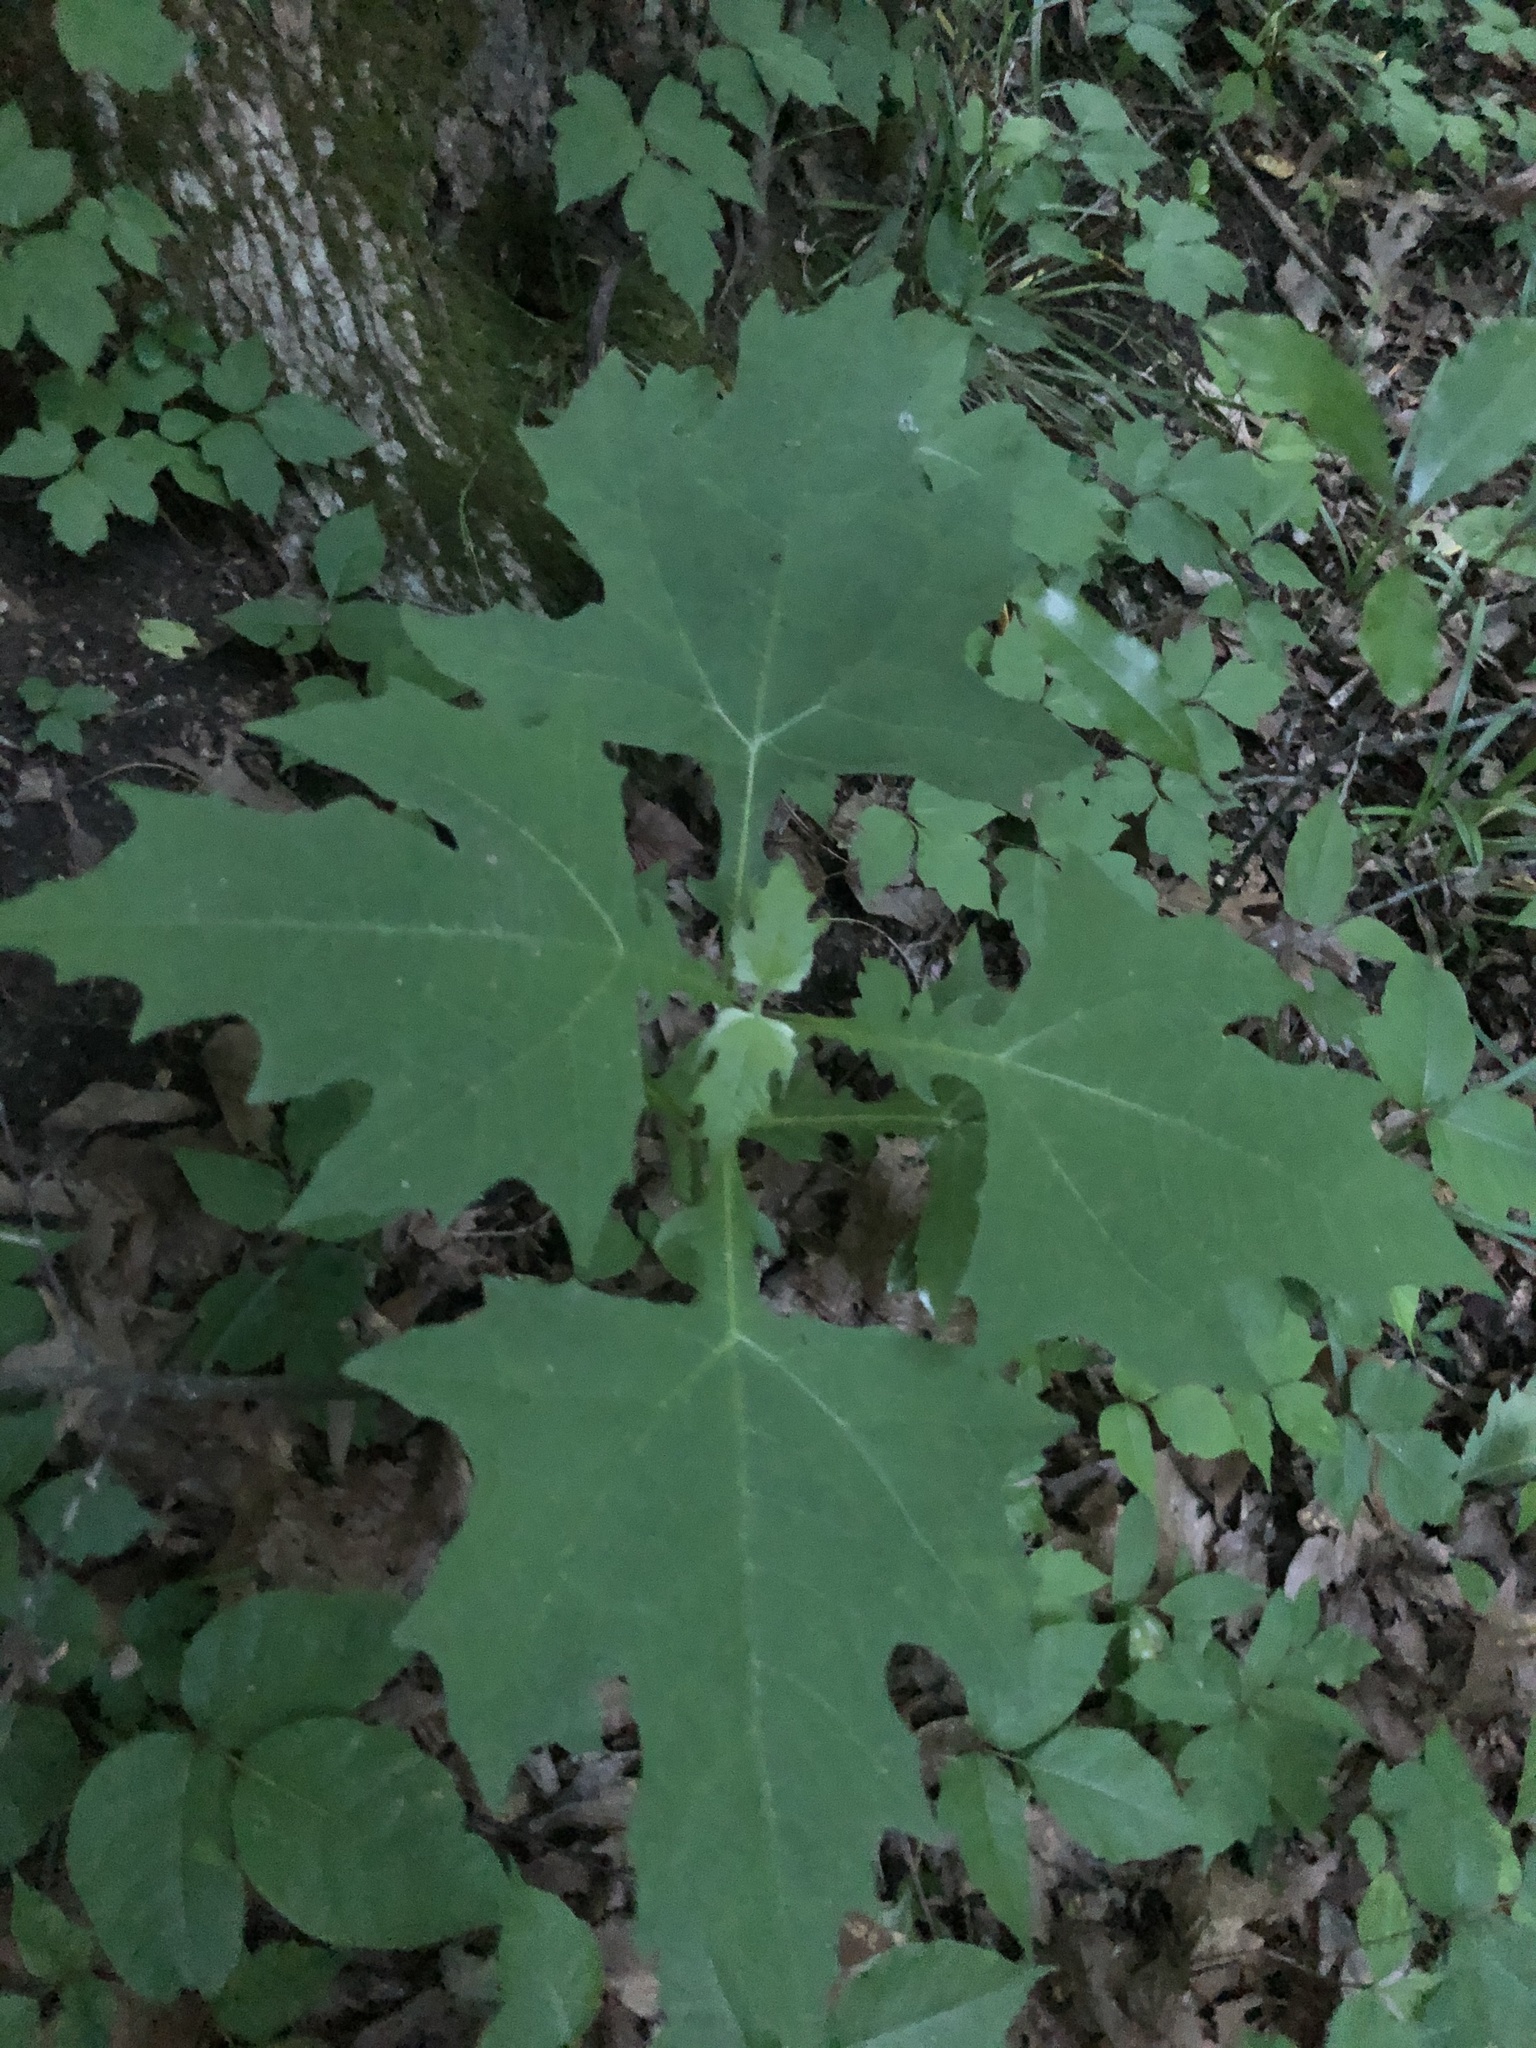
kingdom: Plantae
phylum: Tracheophyta
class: Magnoliopsida
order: Asterales
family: Asteraceae
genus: Smallanthus
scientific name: Smallanthus uvedalia
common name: Bear's-foot
